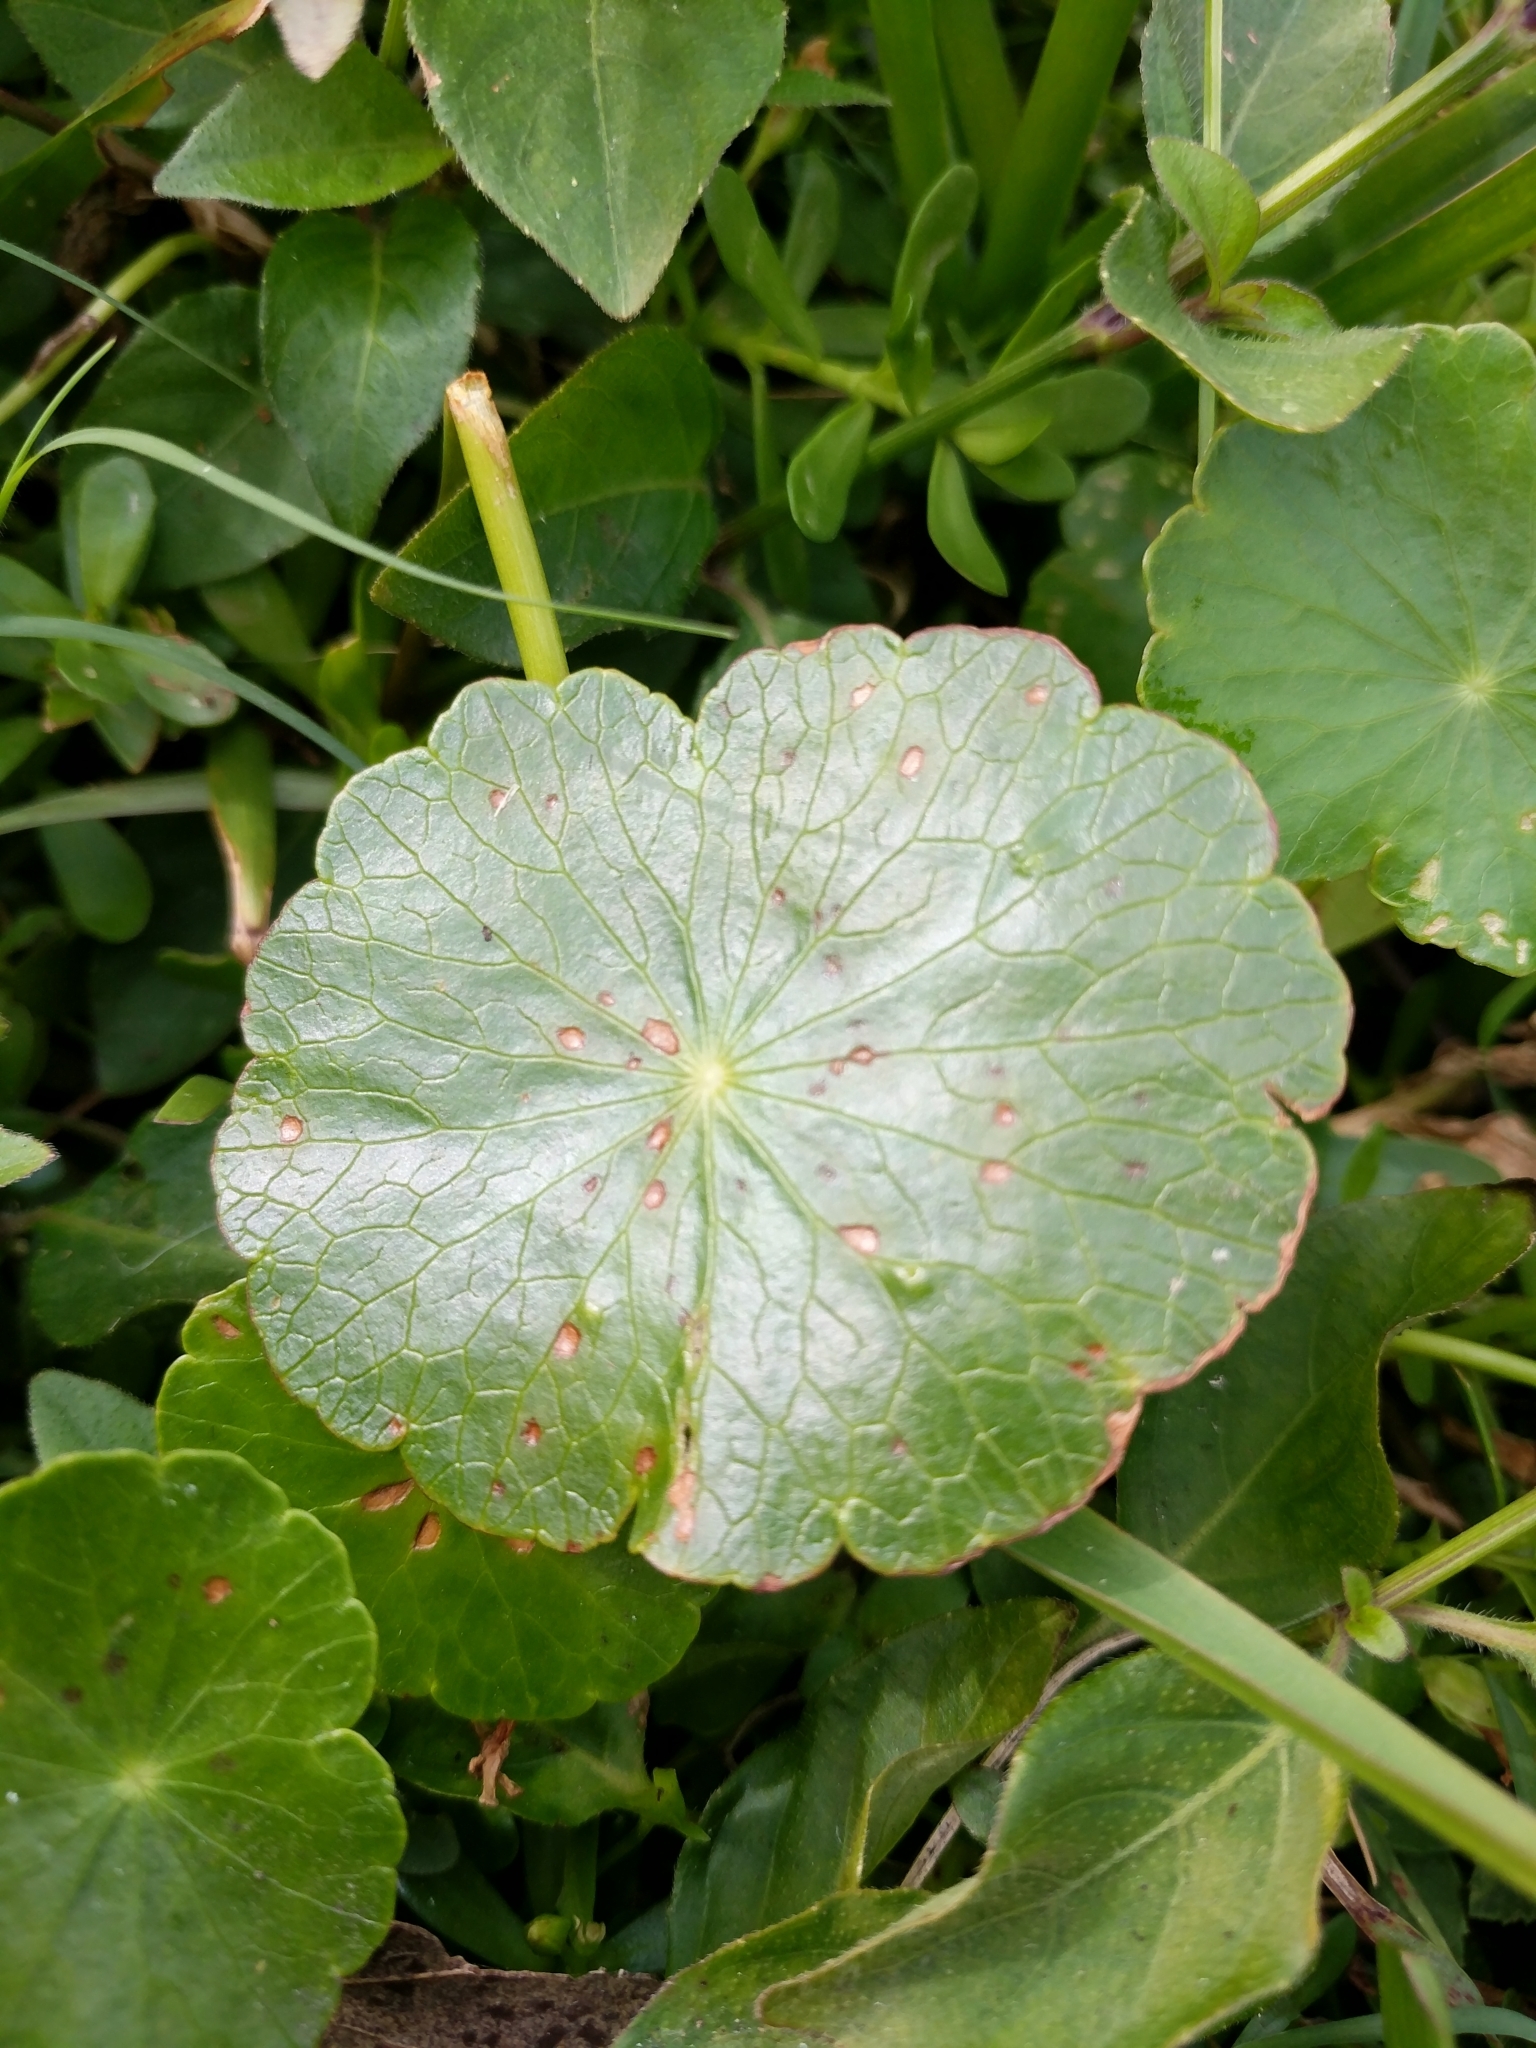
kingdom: Plantae
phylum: Tracheophyta
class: Magnoliopsida
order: Apiales
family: Araliaceae
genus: Hydrocotyle
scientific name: Hydrocotyle bonariensis
